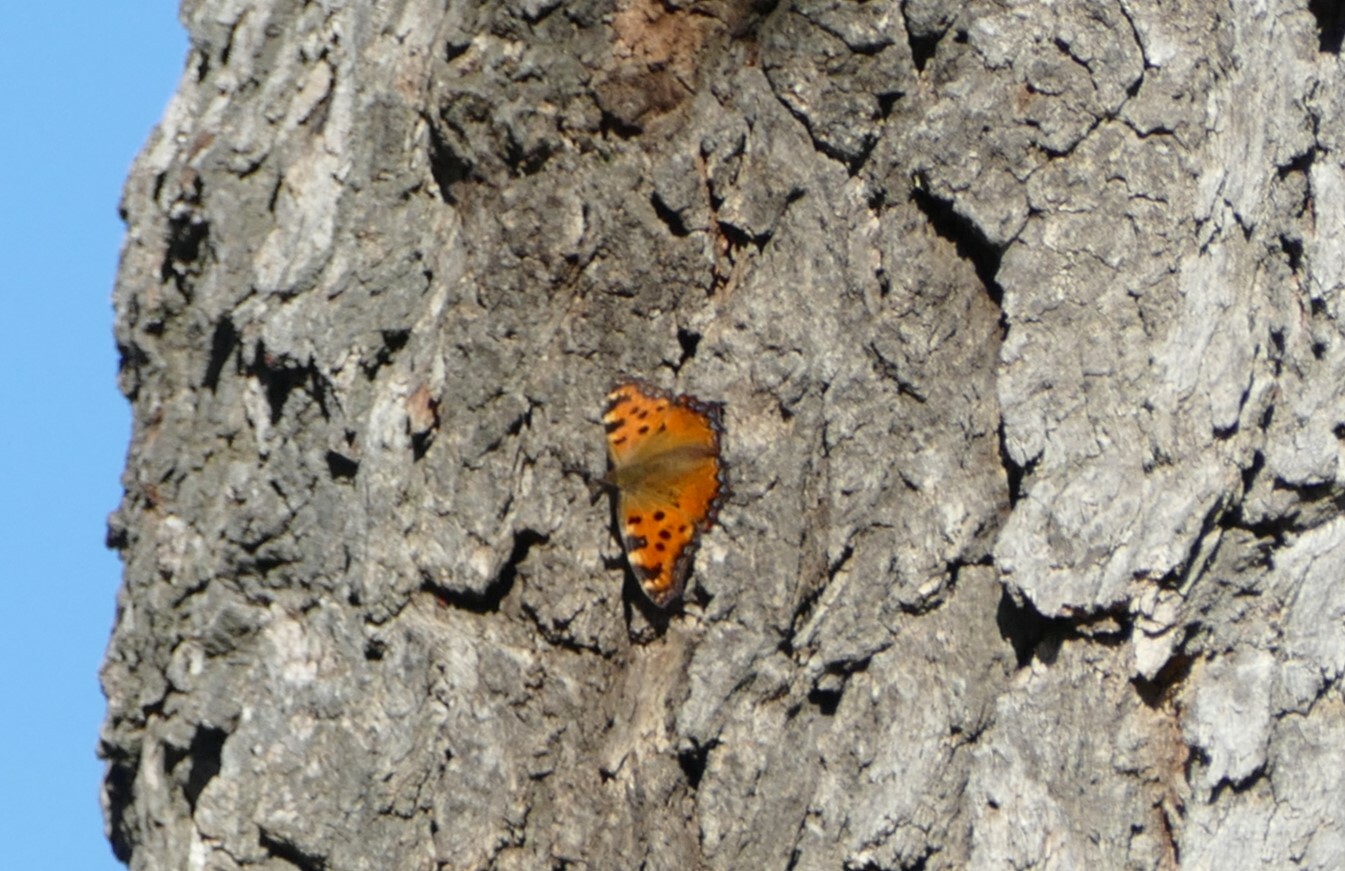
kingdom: Animalia
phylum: Arthropoda
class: Insecta
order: Lepidoptera
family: Nymphalidae
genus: Nymphalis
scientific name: Nymphalis polychloros
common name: Large tortoiseshell
